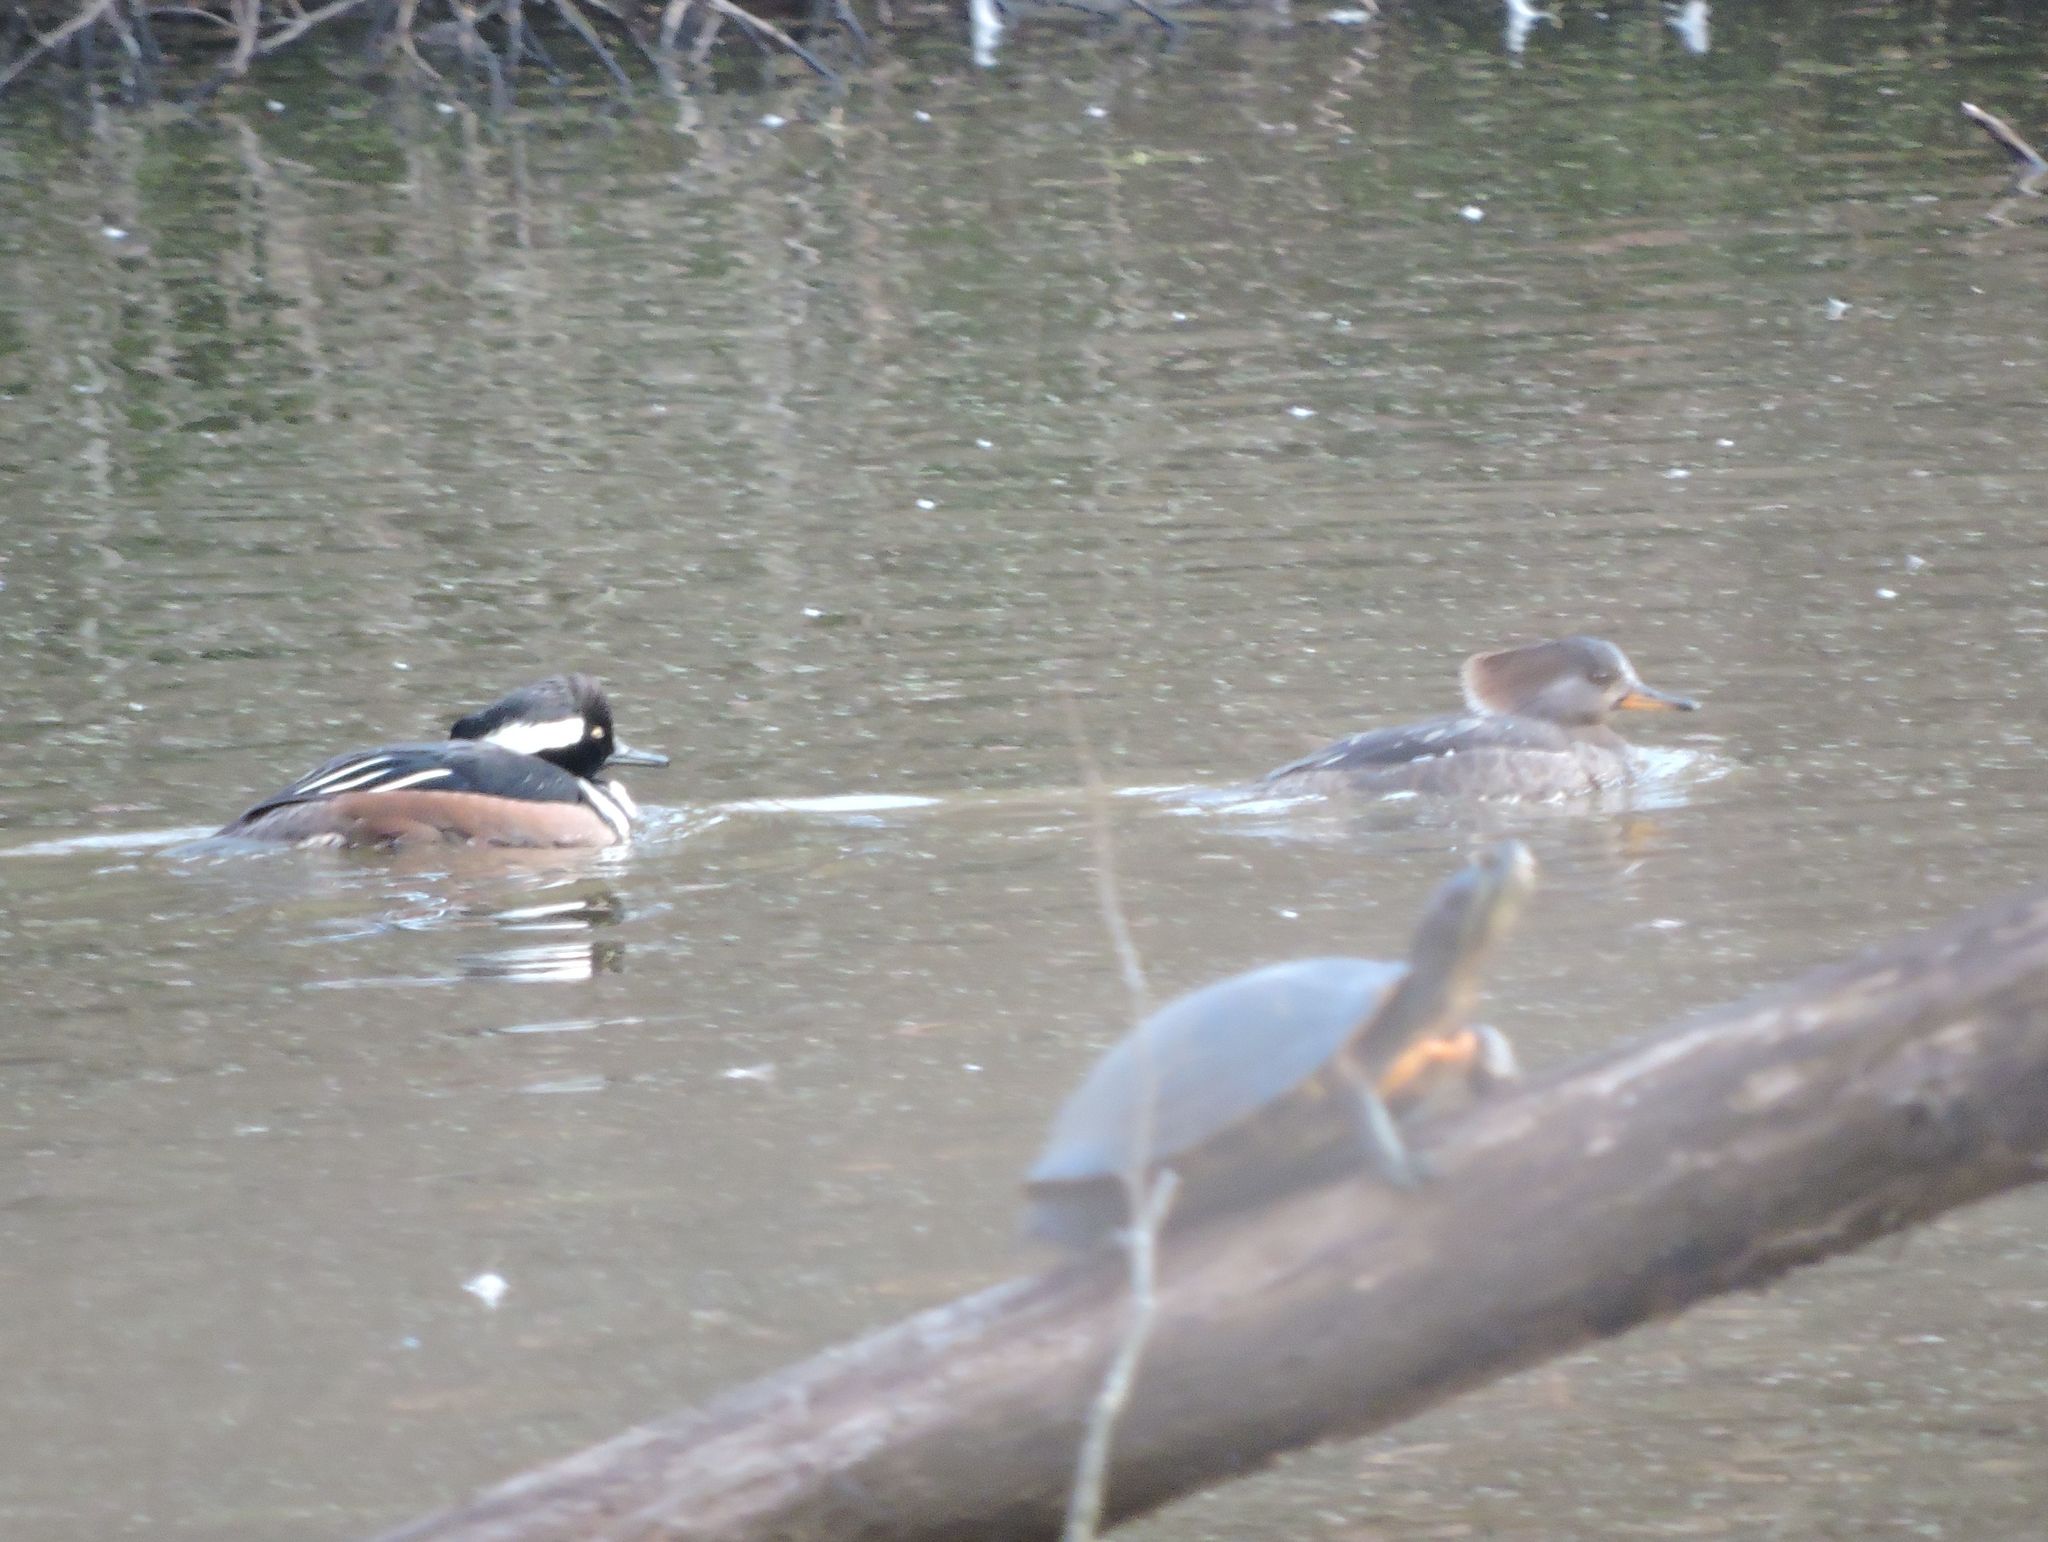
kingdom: Animalia
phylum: Chordata
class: Aves
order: Anseriformes
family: Anatidae
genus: Lophodytes
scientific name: Lophodytes cucullatus
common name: Hooded merganser
